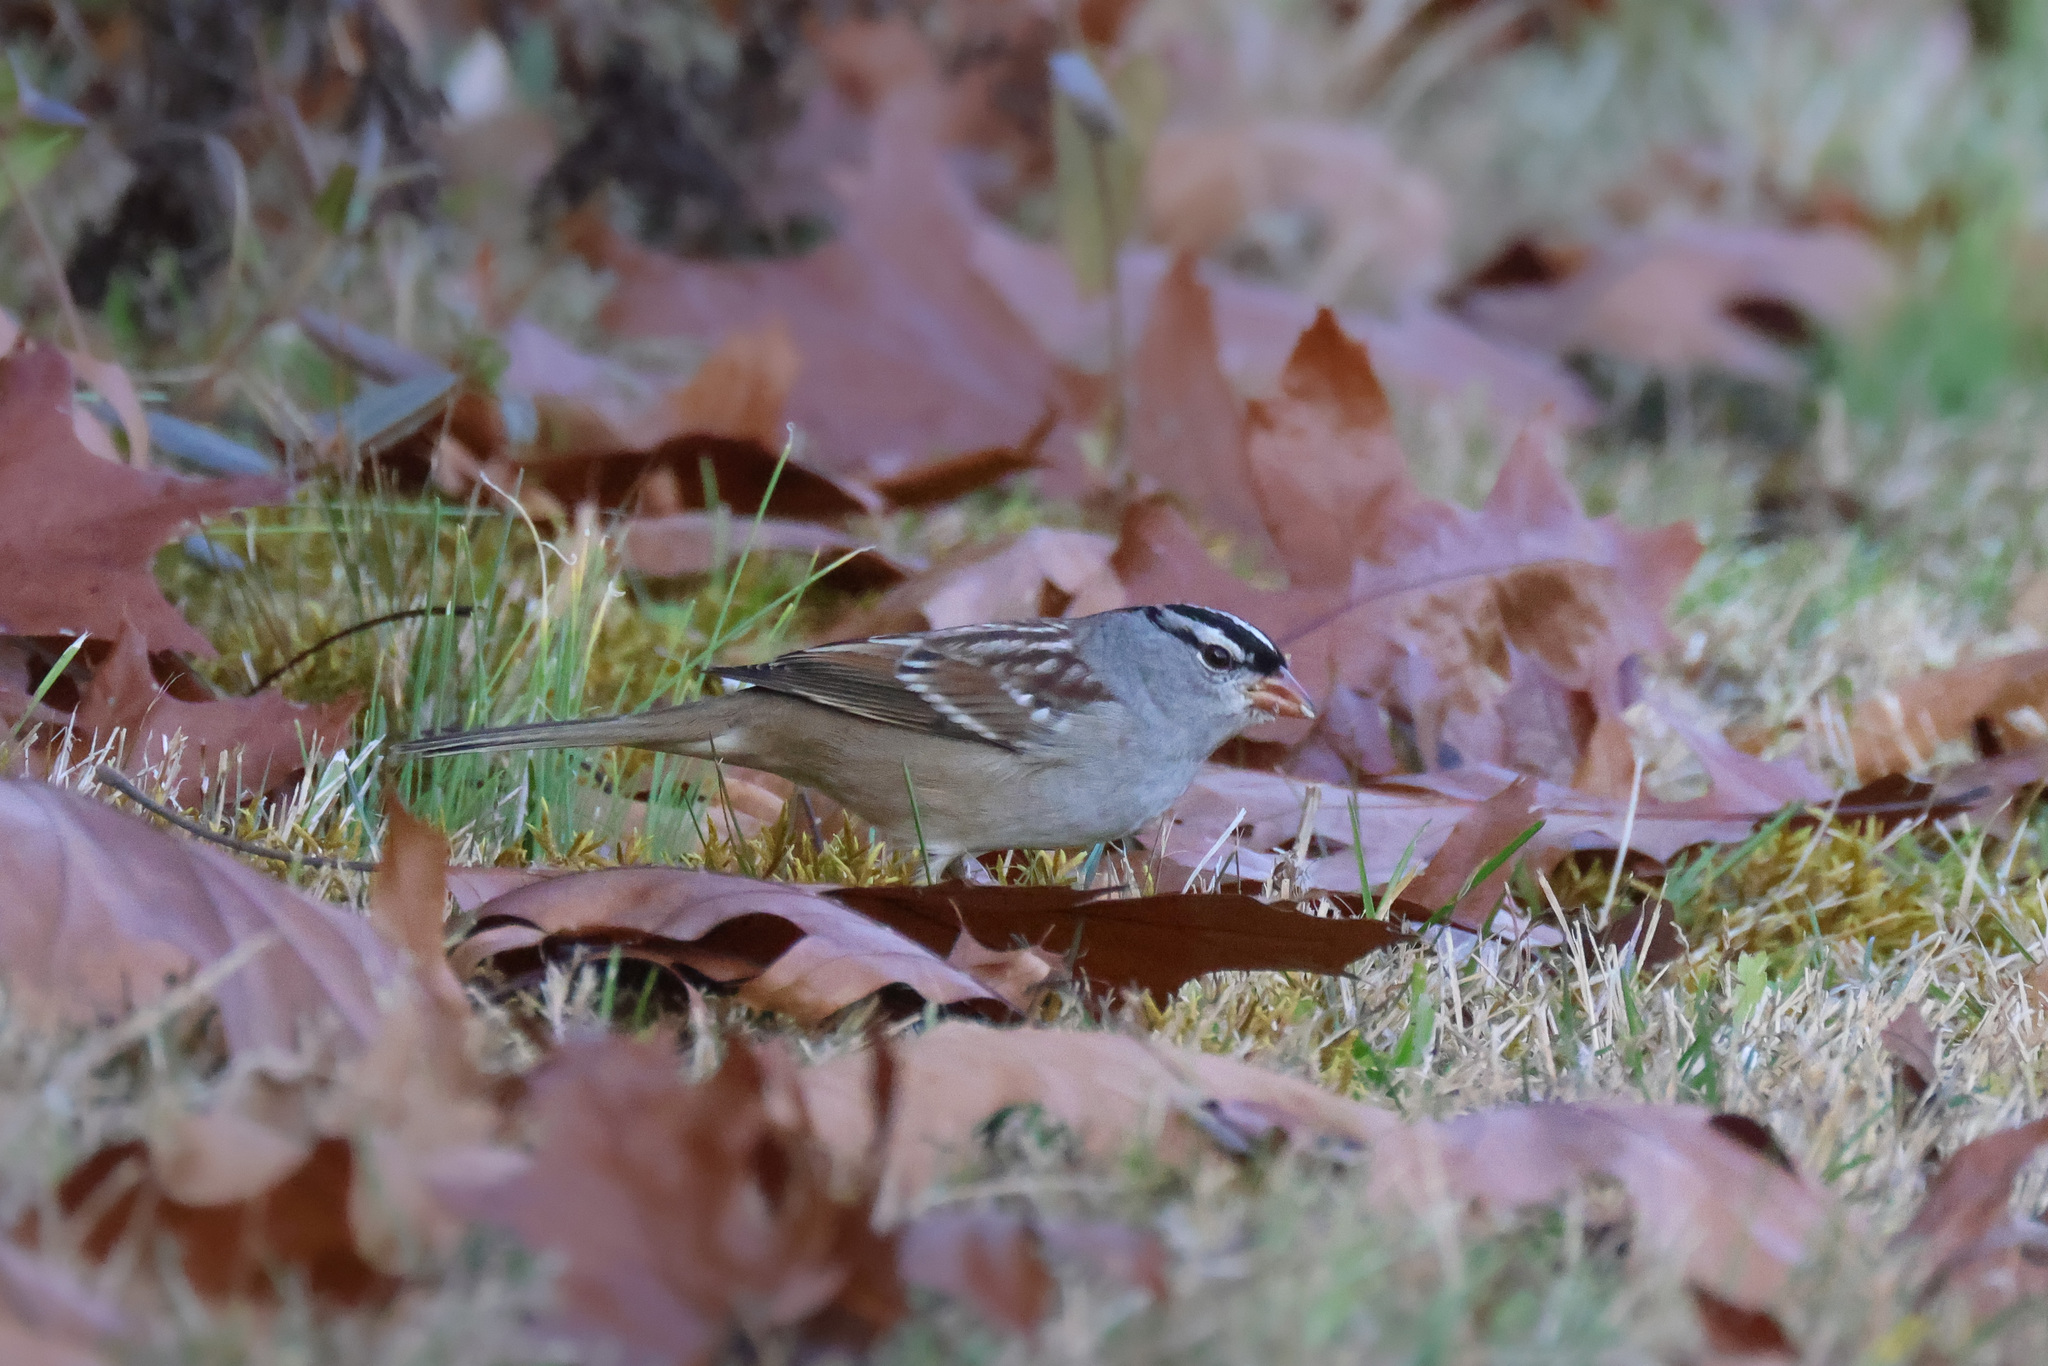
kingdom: Animalia
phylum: Chordata
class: Aves
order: Passeriformes
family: Passerellidae
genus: Zonotrichia
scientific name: Zonotrichia leucophrys
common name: White-crowned sparrow
